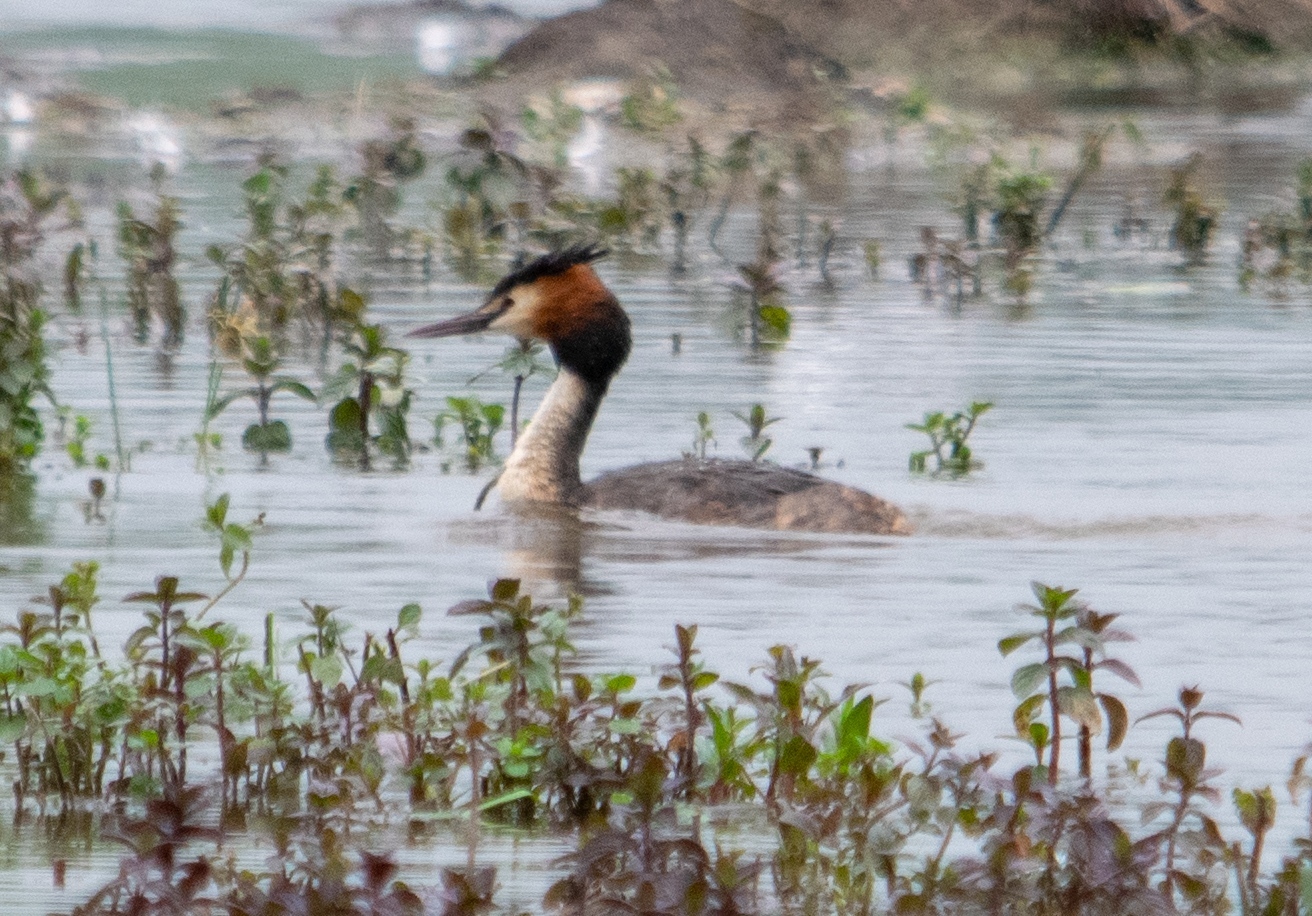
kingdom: Animalia
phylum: Chordata
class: Aves
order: Podicipediformes
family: Podicipedidae
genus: Podiceps
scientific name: Podiceps cristatus
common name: Great crested grebe
